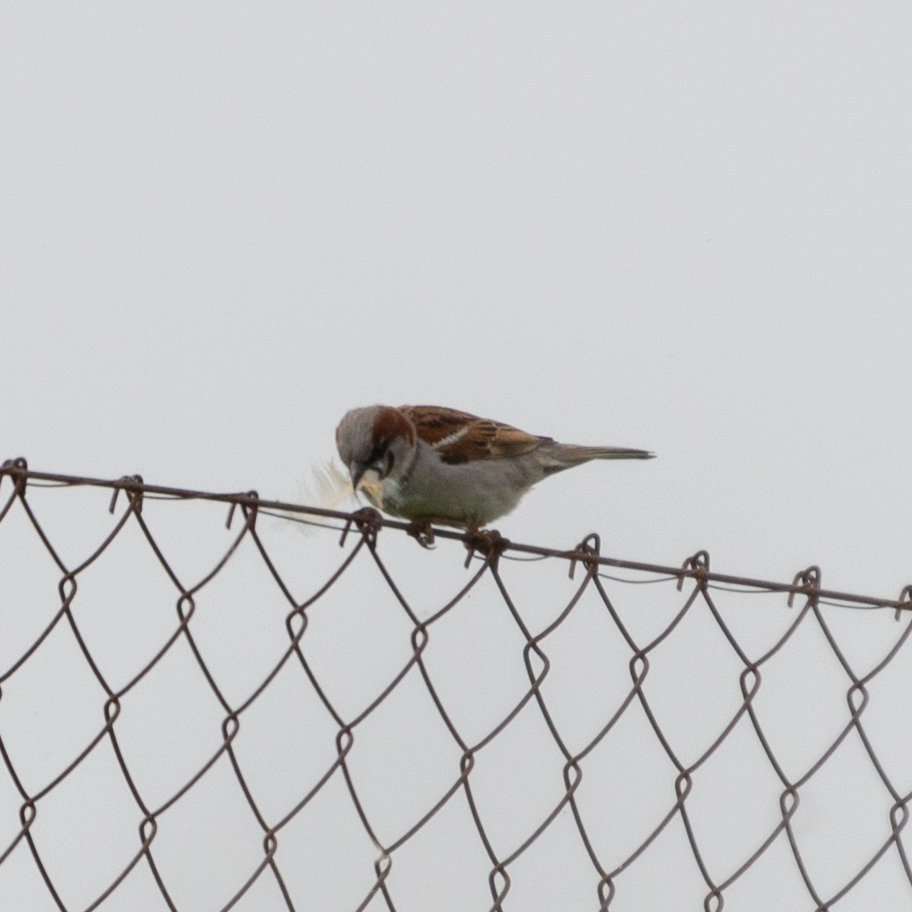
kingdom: Animalia
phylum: Chordata
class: Aves
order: Passeriformes
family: Passeridae
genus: Passer
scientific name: Passer domesticus
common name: House sparrow
